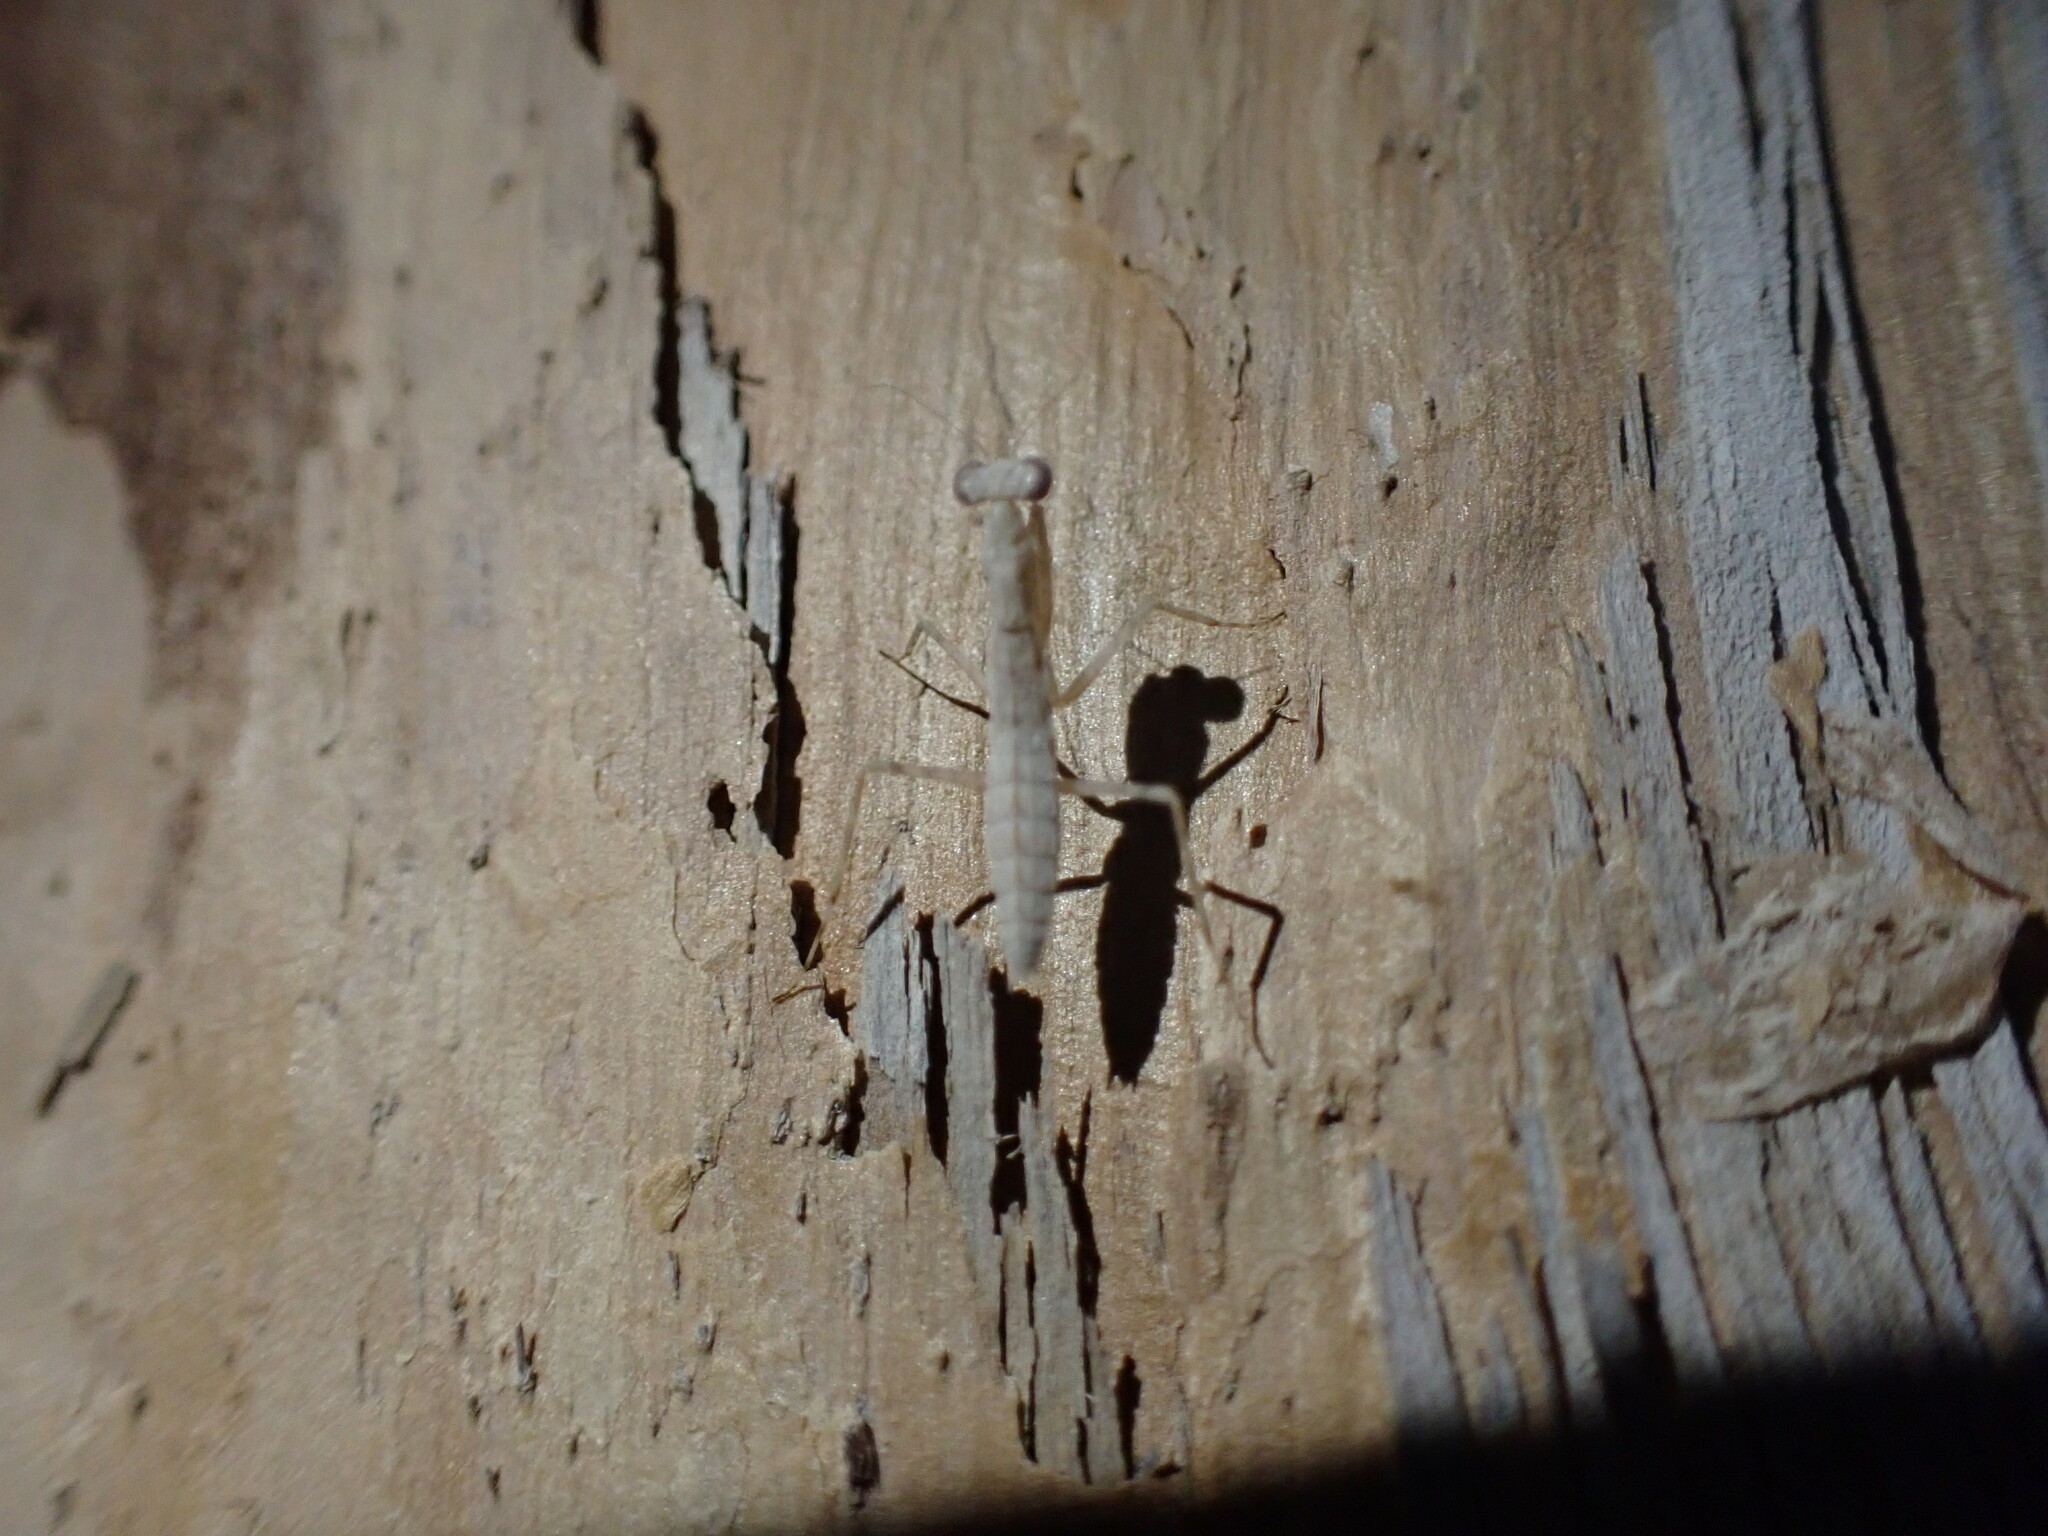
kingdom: Animalia
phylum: Arthropoda
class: Insecta
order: Mantodea
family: Nanomantidae
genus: Ima
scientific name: Ima fusca
